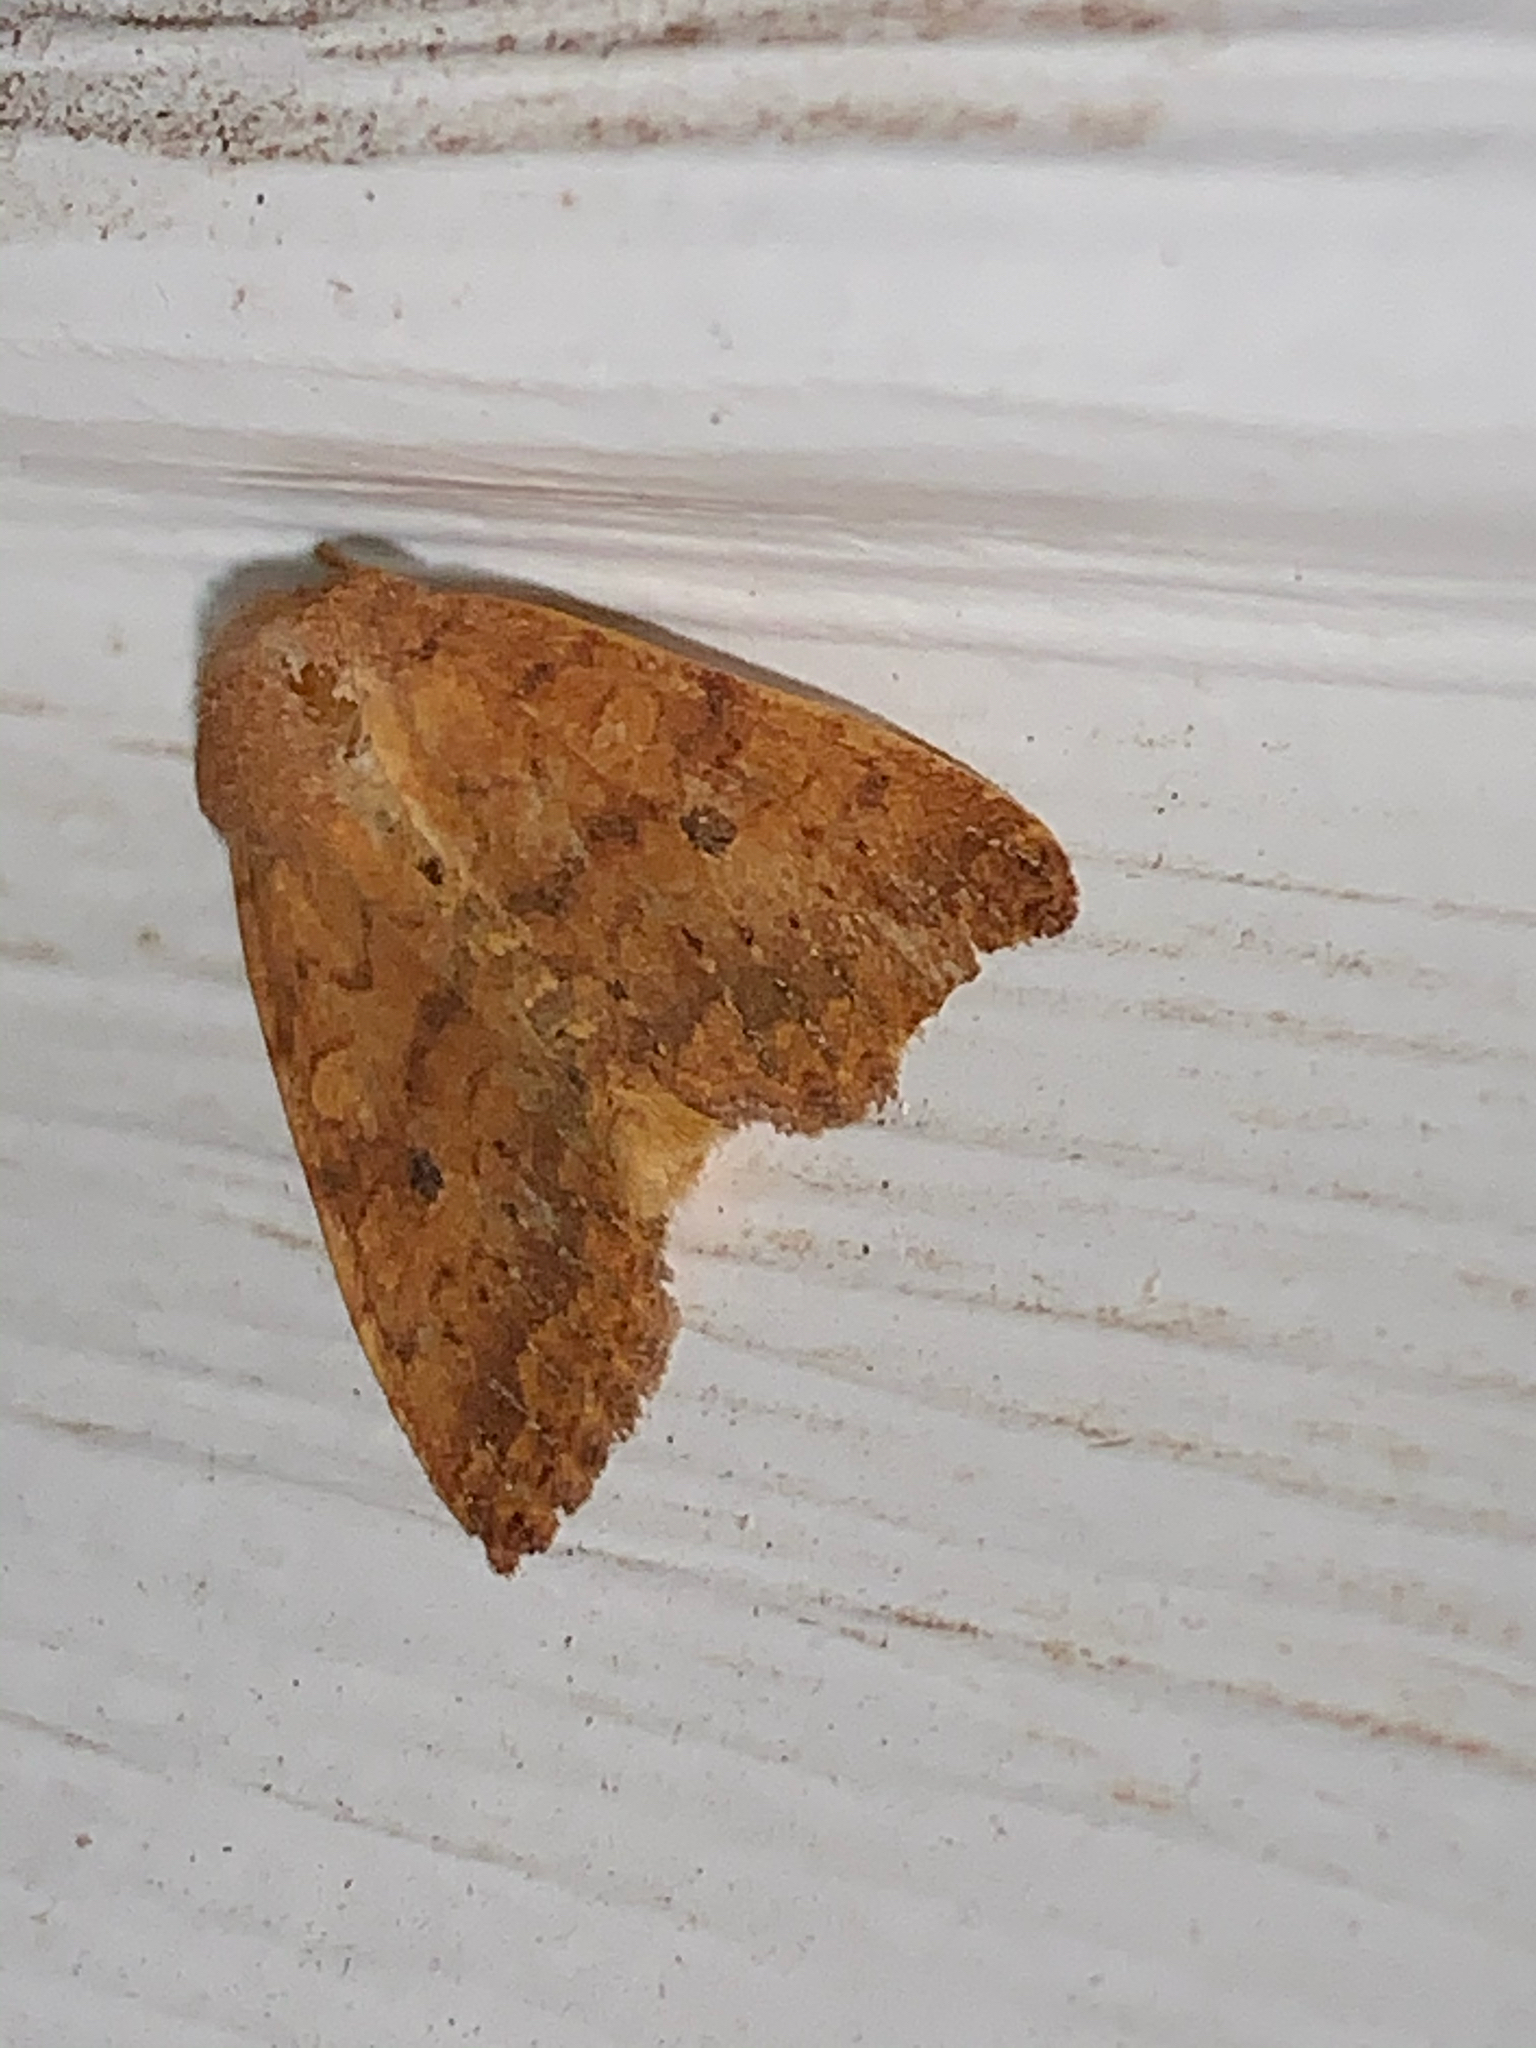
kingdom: Animalia
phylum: Arthropoda
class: Insecta
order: Lepidoptera
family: Noctuidae
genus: Agrochola
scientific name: Agrochola bicolorago
